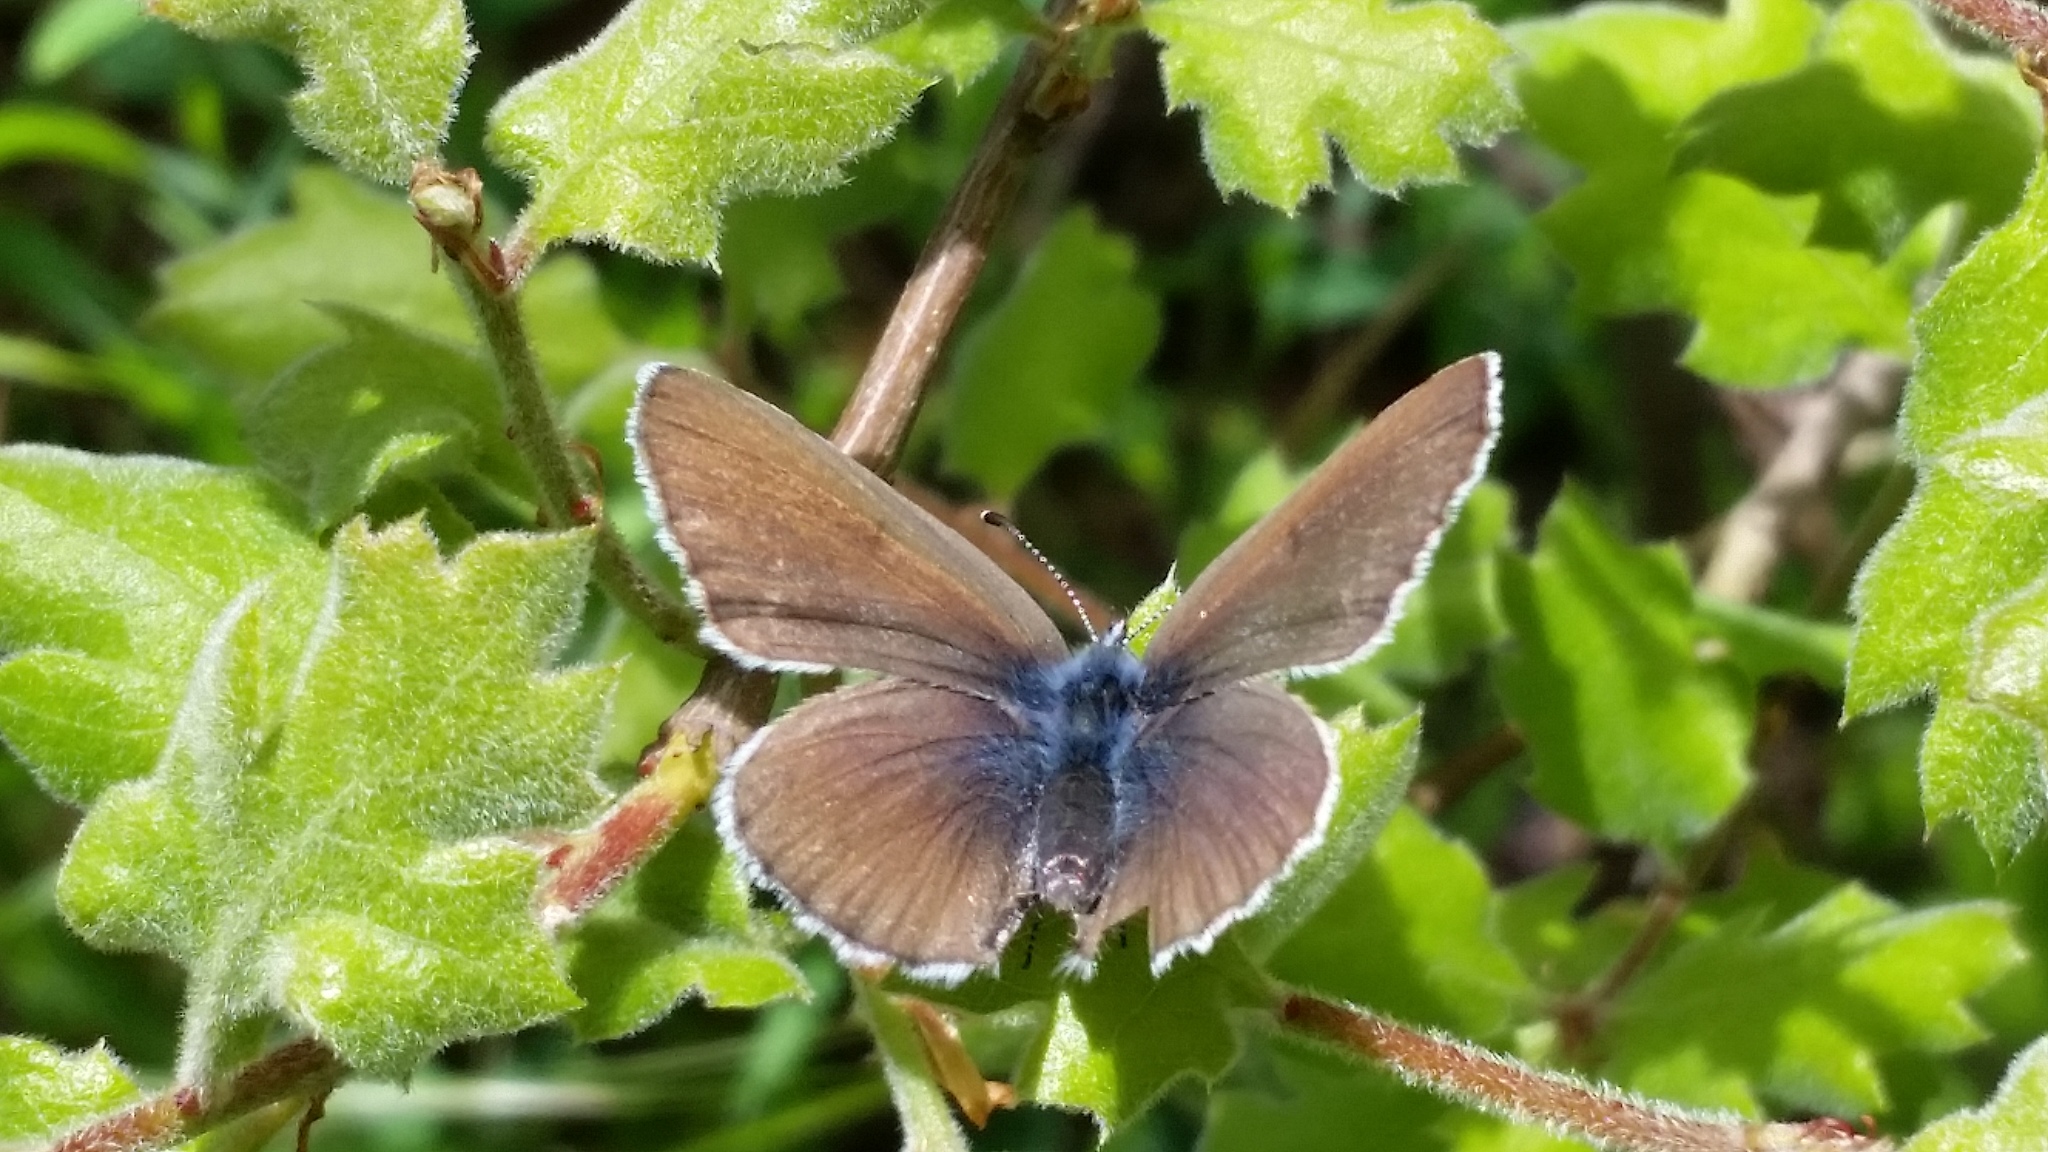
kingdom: Animalia
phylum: Arthropoda
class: Insecta
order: Lepidoptera
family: Lycaenidae
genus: Glaucopsyche
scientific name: Glaucopsyche lygdamus
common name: Silvery blue
